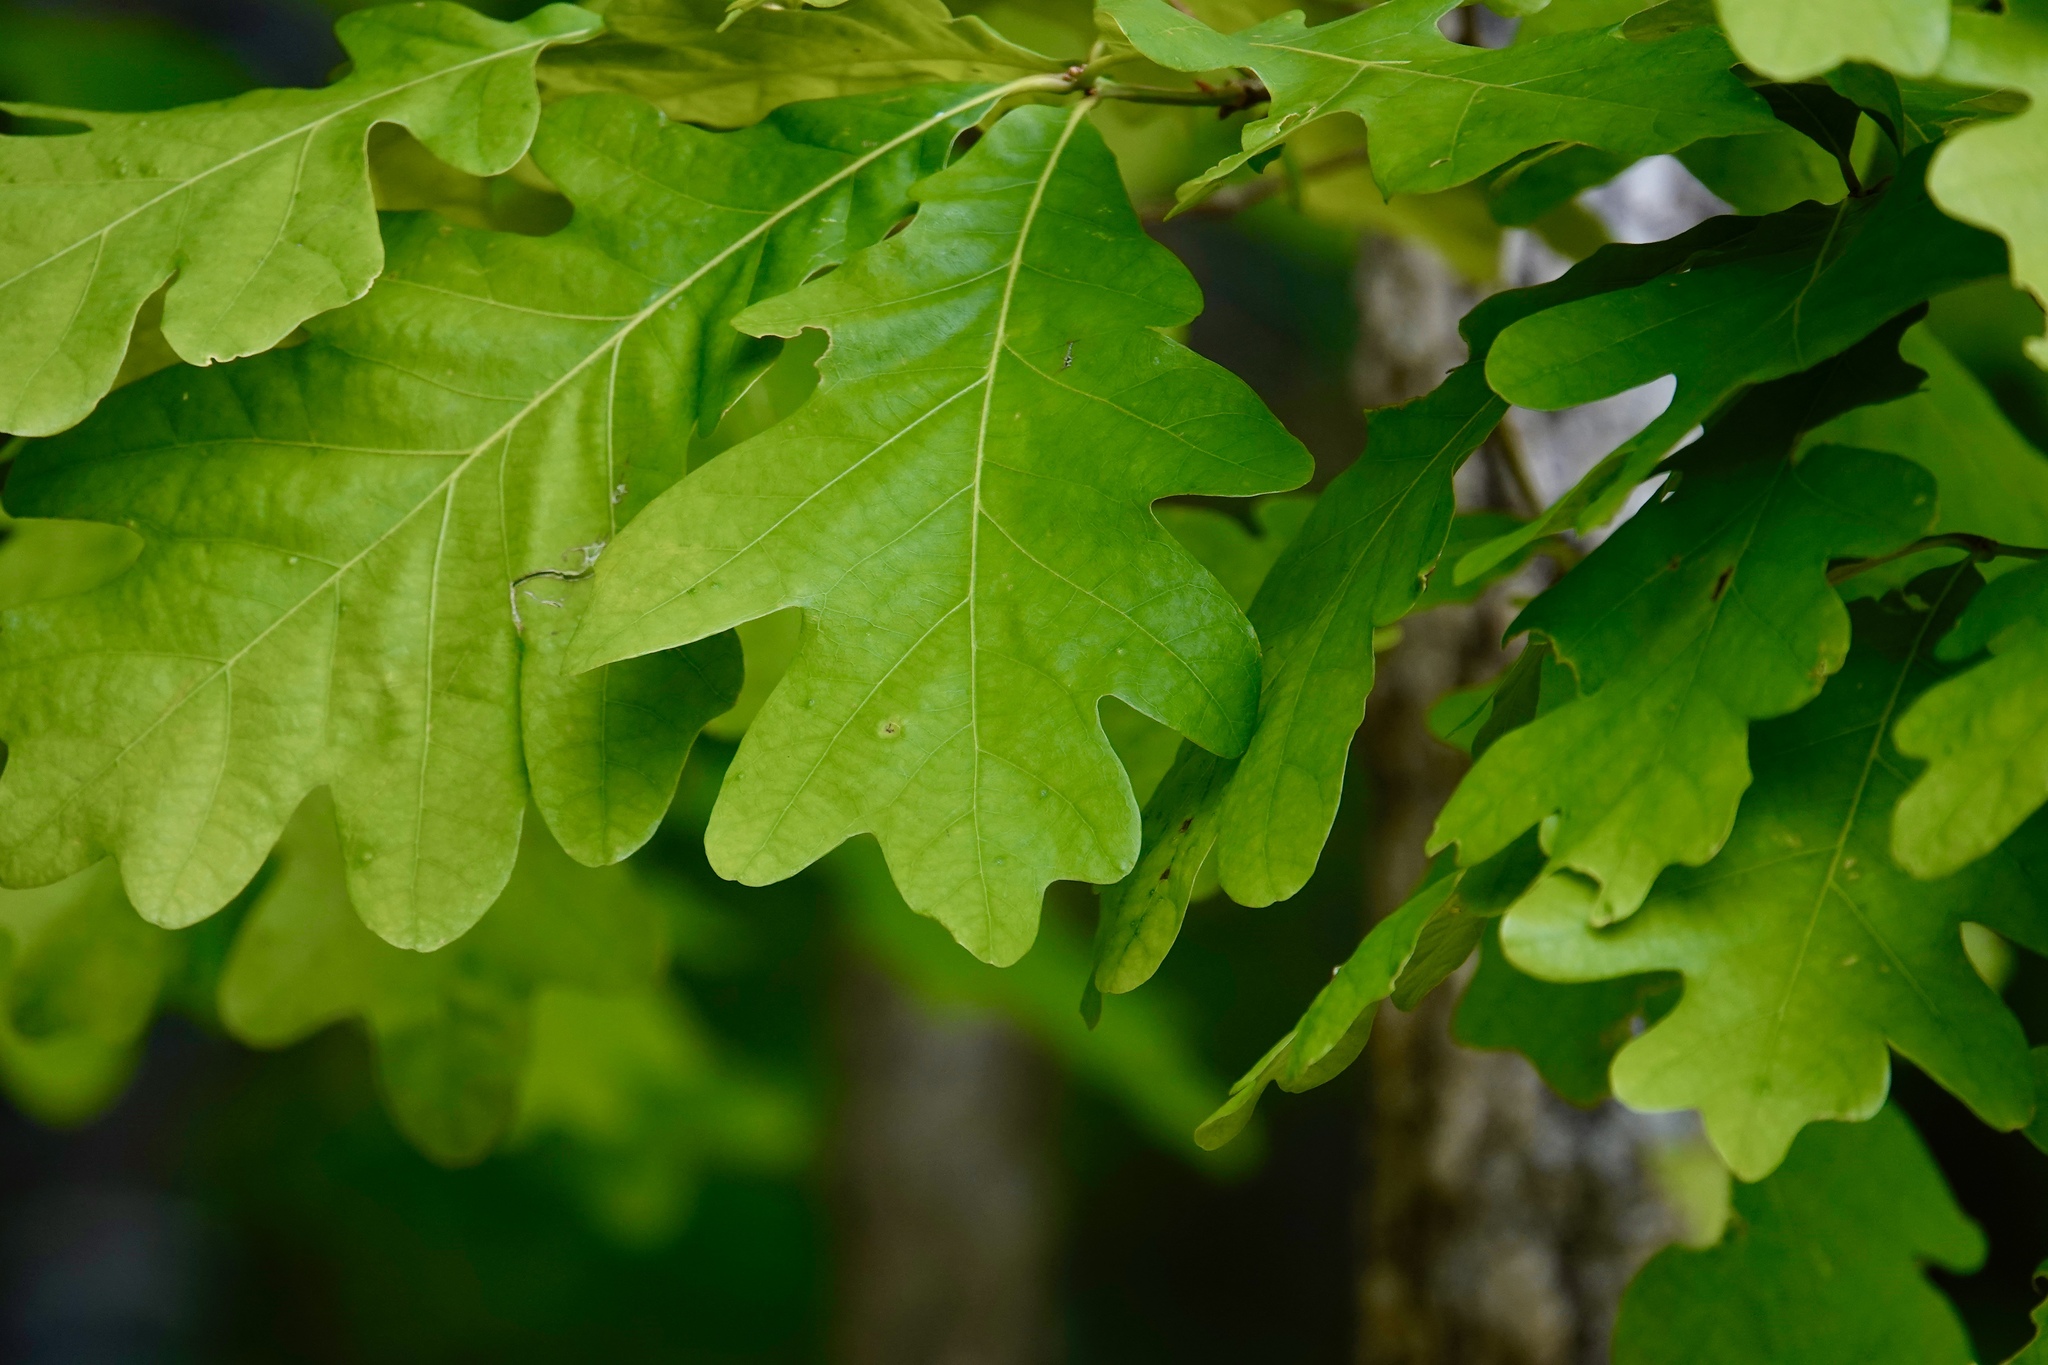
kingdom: Plantae
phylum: Tracheophyta
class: Magnoliopsida
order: Fagales
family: Fagaceae
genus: Quercus
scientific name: Quercus alba
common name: White oak
